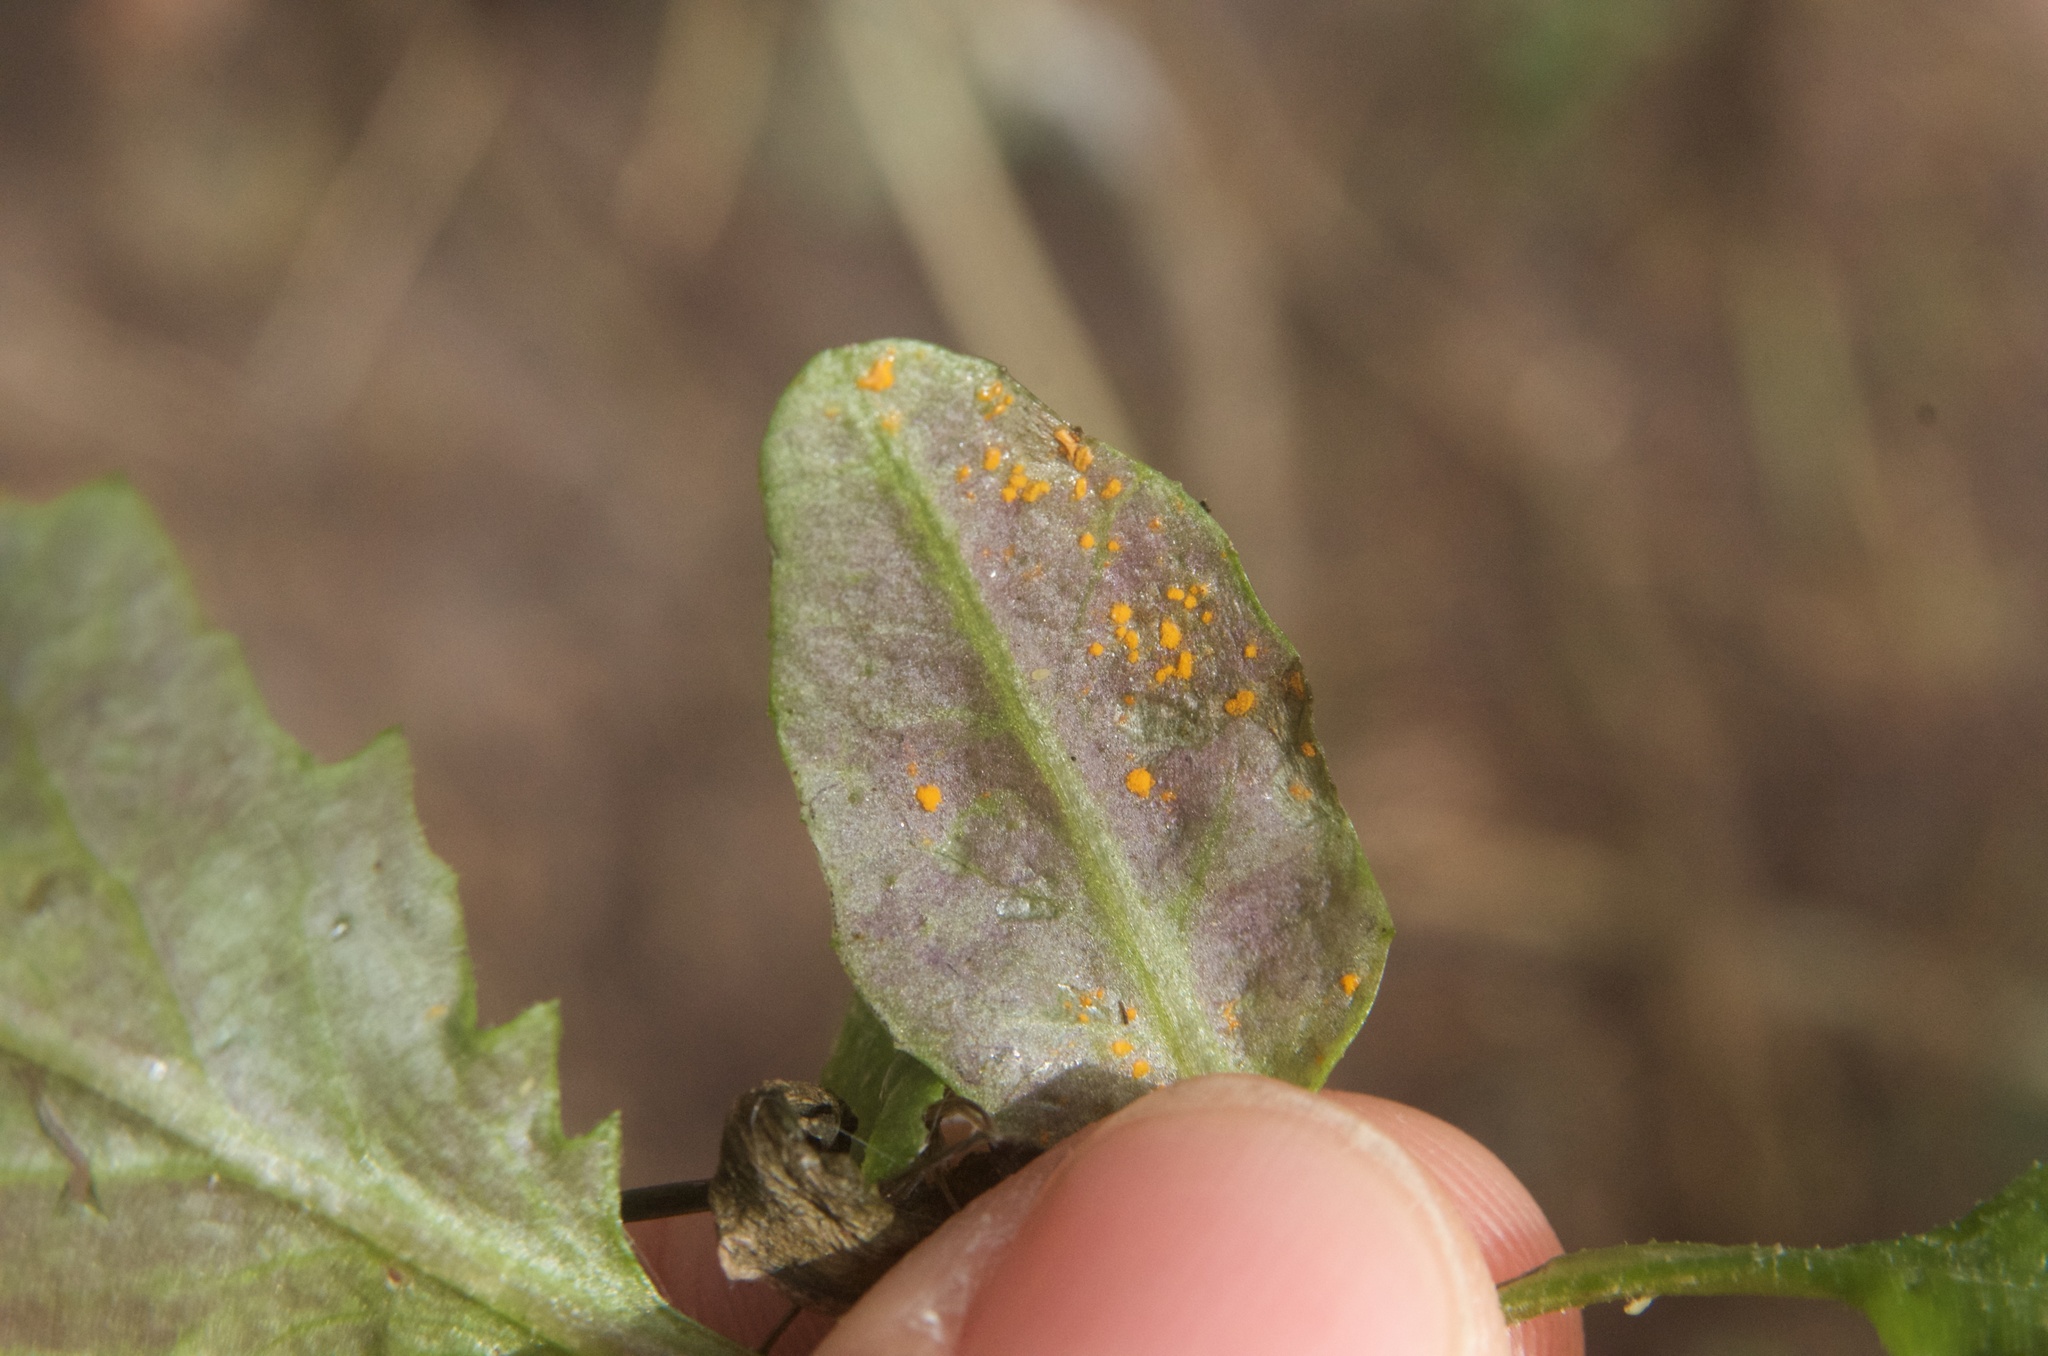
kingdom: Fungi
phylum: Basidiomycota
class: Pucciniomycetes
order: Pucciniales
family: Coleosporiaceae
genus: Coleosporium
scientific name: Coleosporium tussilaginis
